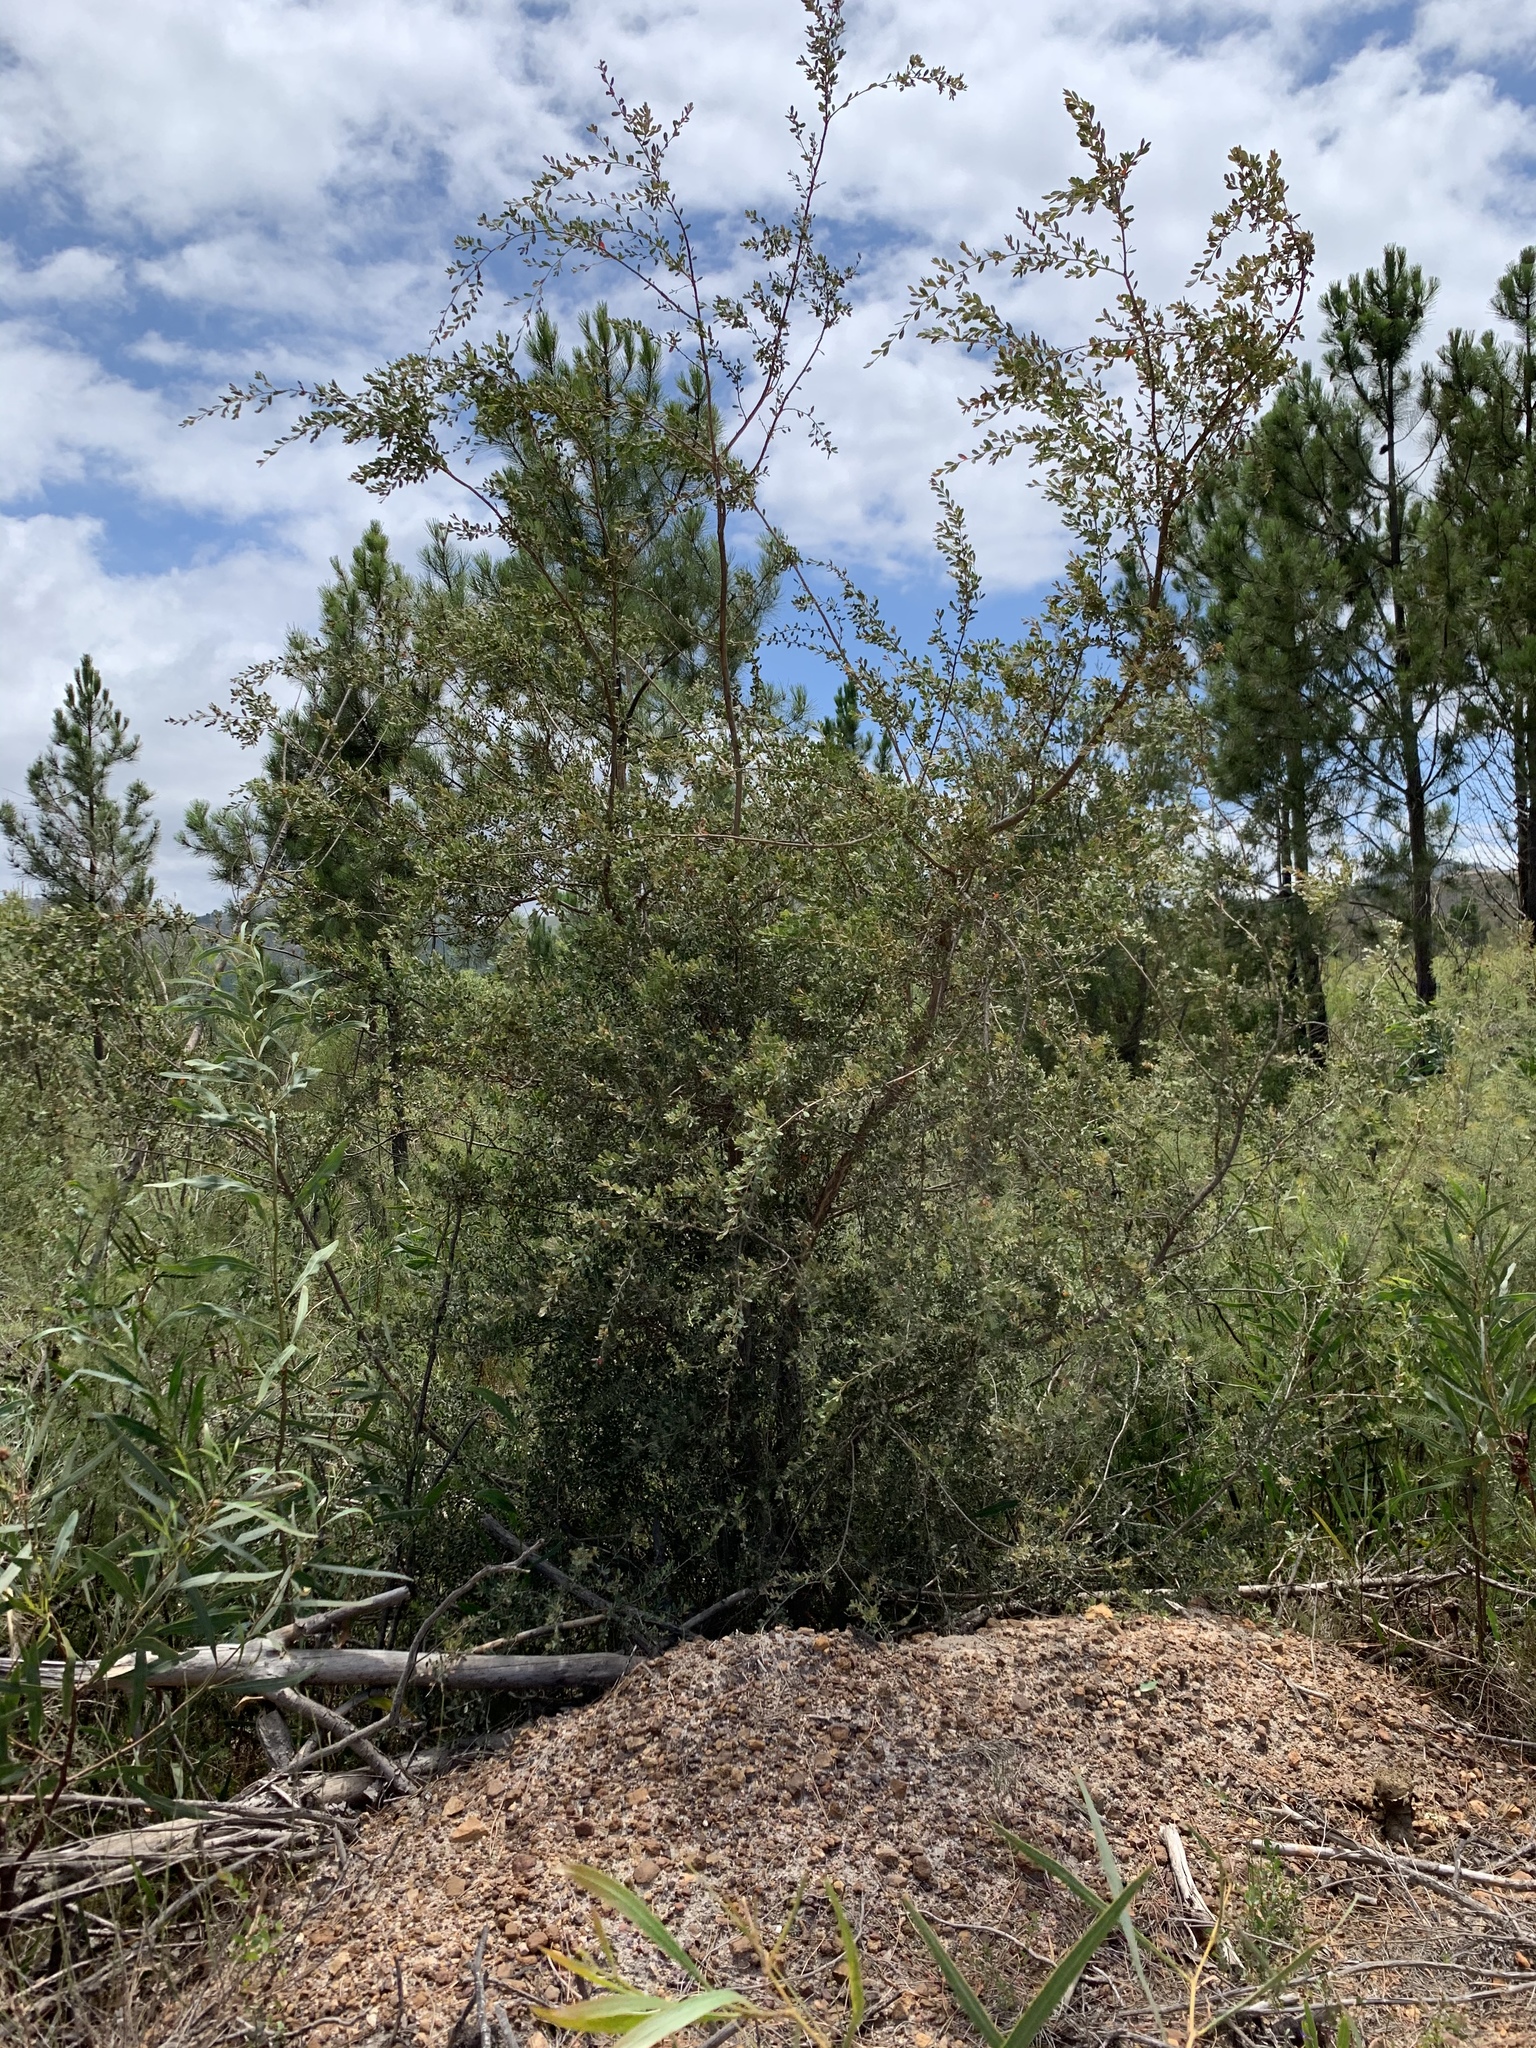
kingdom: Plantae
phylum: Tracheophyta
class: Magnoliopsida
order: Myrtales
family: Myrtaceae
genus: Leptospermum
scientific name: Leptospermum laevigatum
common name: Australian teatree
